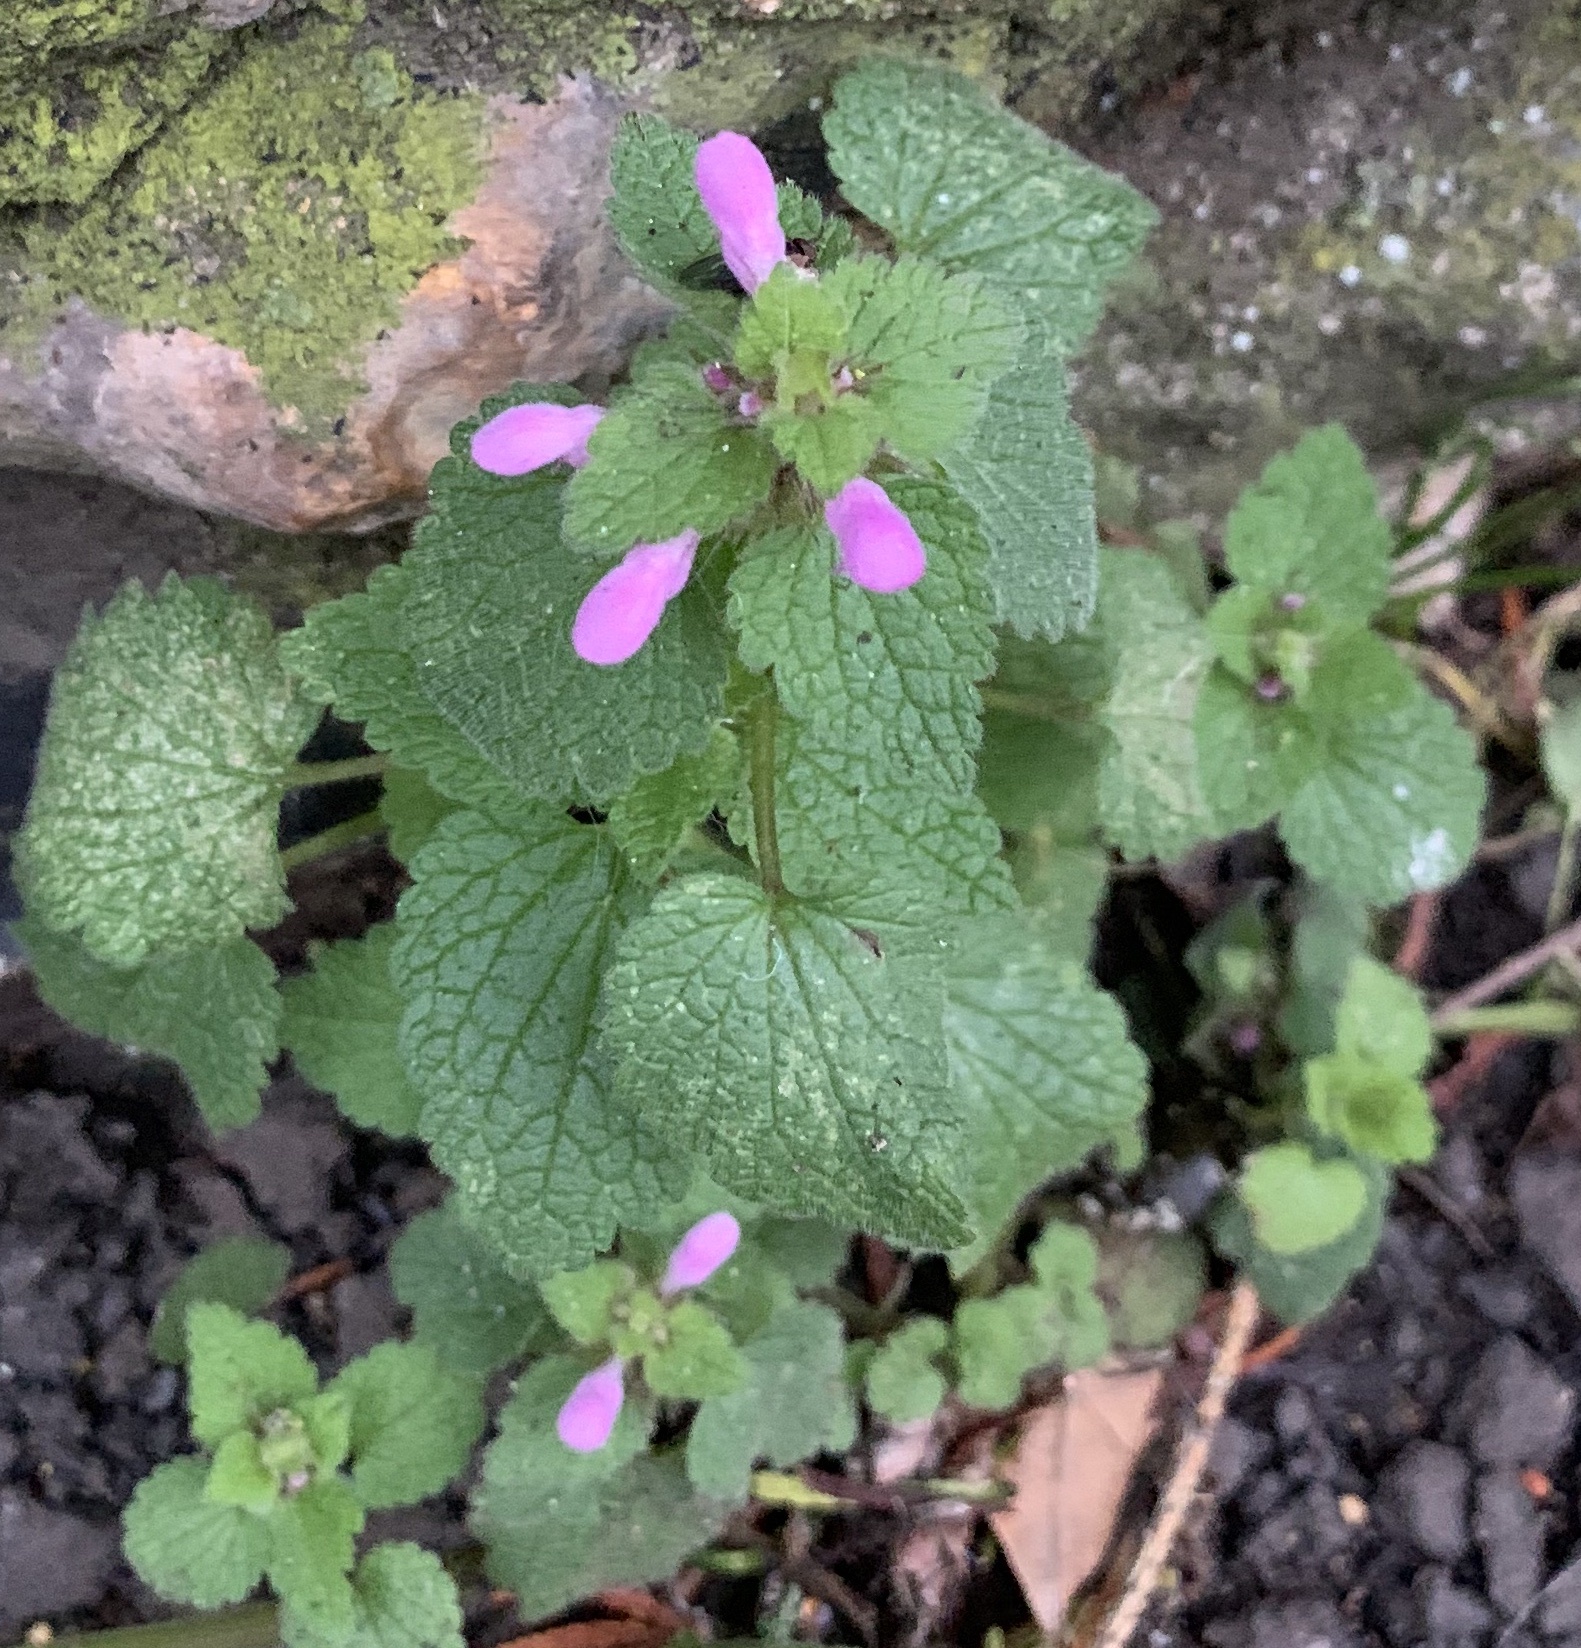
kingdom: Plantae
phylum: Tracheophyta
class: Magnoliopsida
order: Lamiales
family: Lamiaceae
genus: Lamium
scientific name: Lamium purpureum
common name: Red dead-nettle
